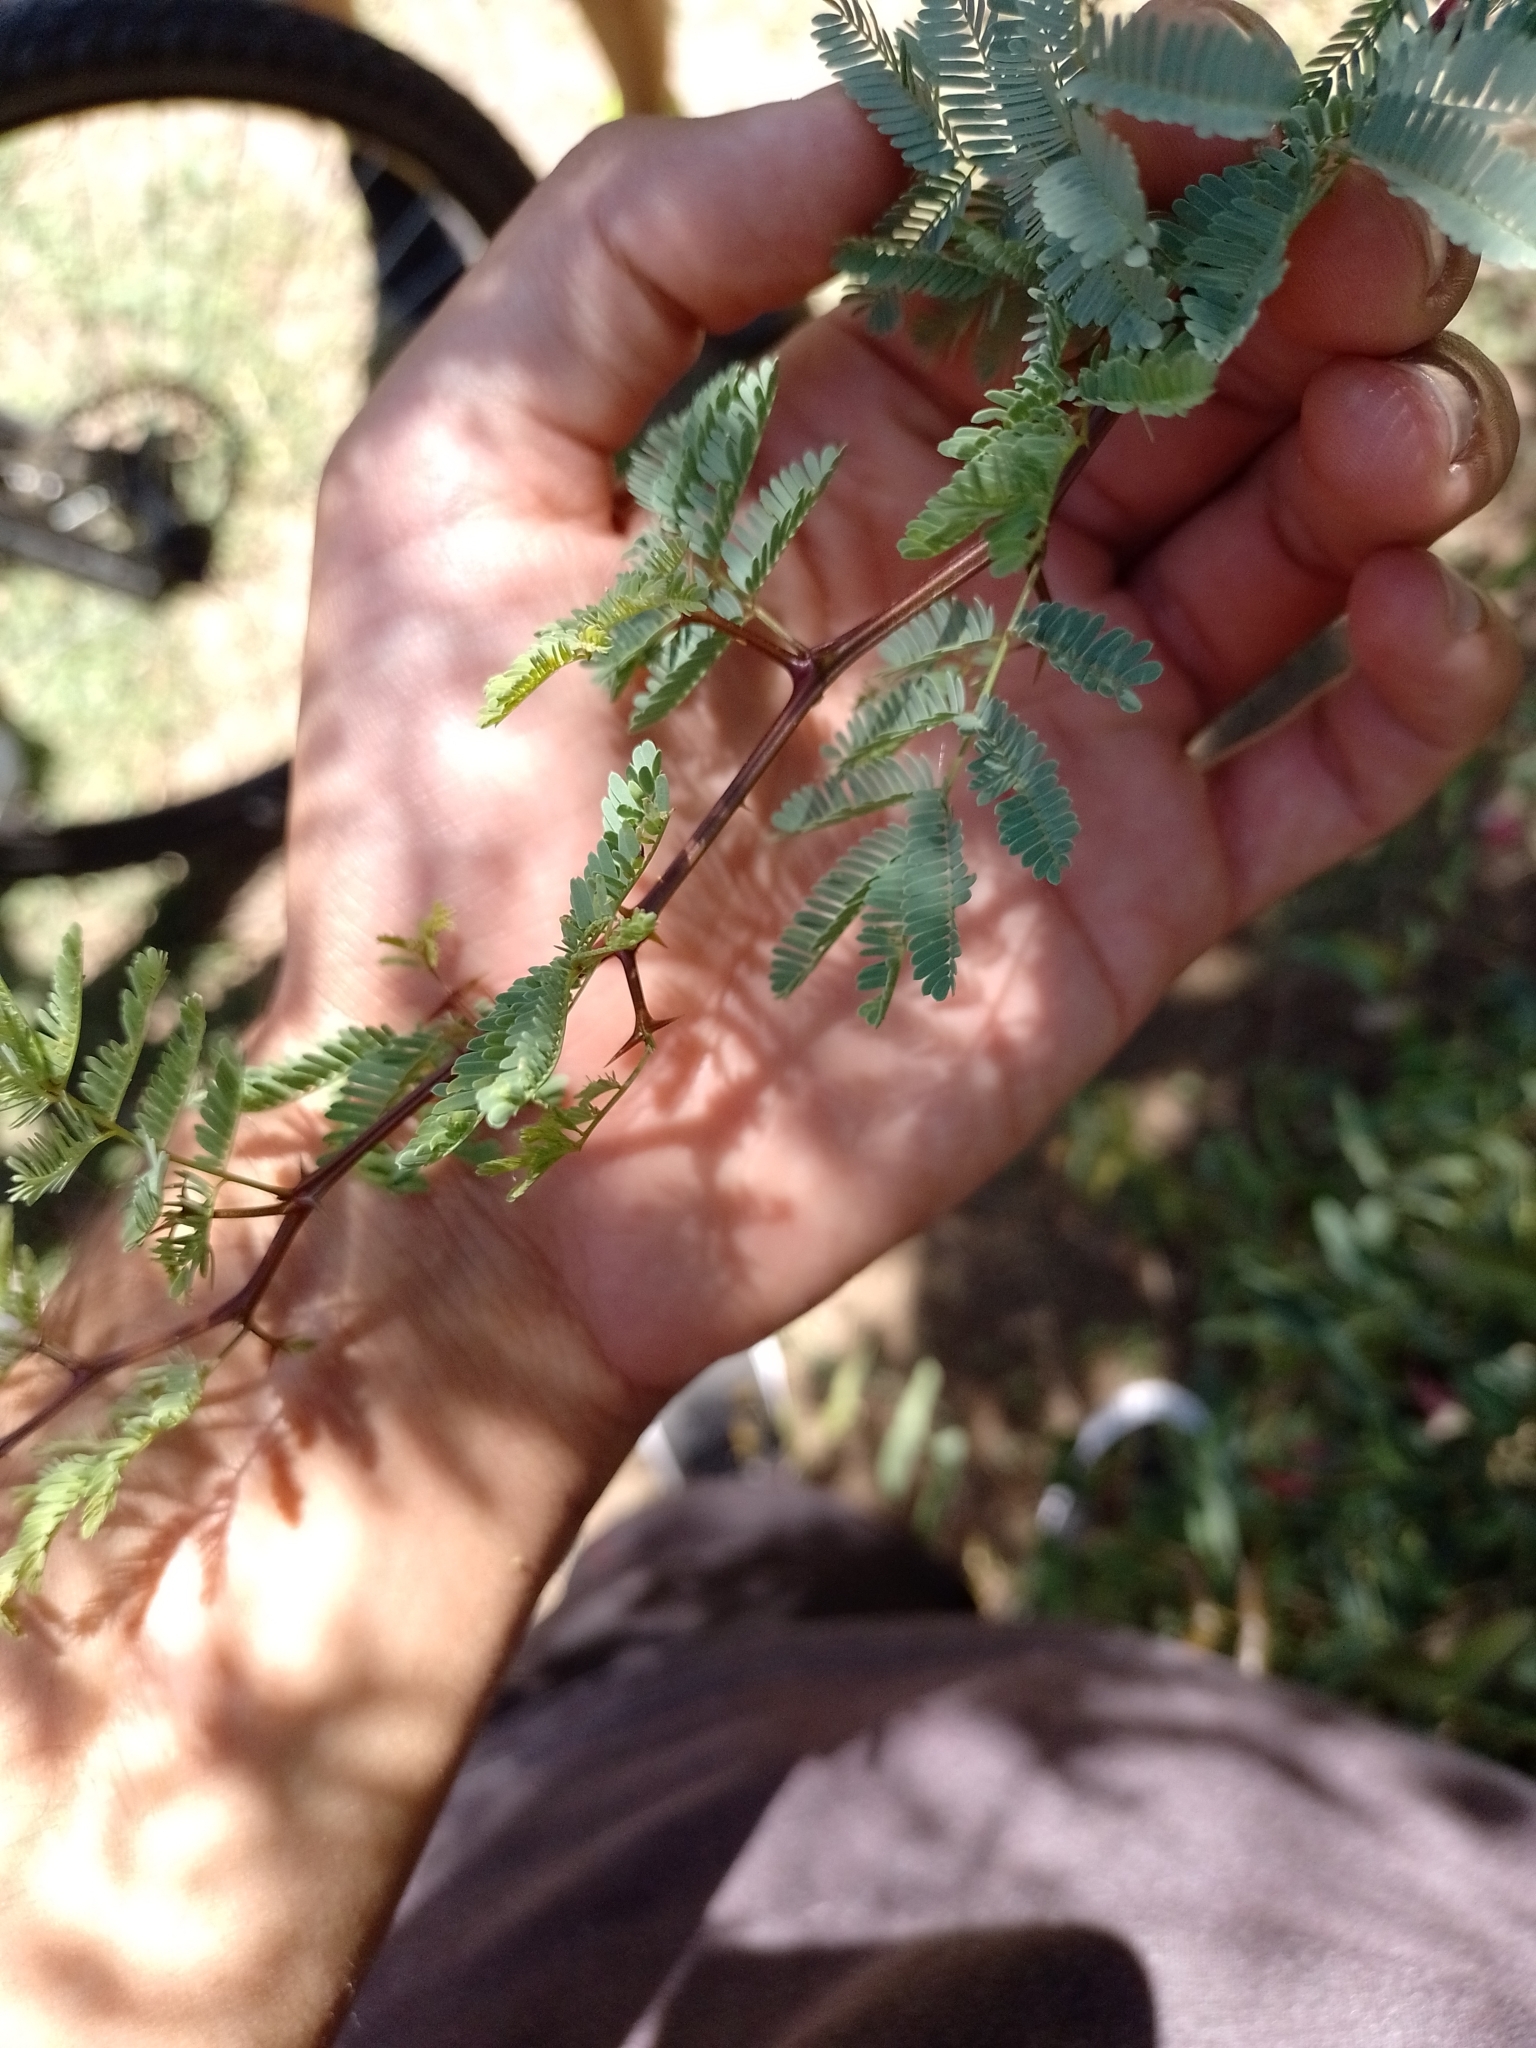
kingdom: Plantae
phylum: Tracheophyta
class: Magnoliopsida
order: Fabales
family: Fabaceae
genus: Senegalia
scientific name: Senegalia gilliesii
